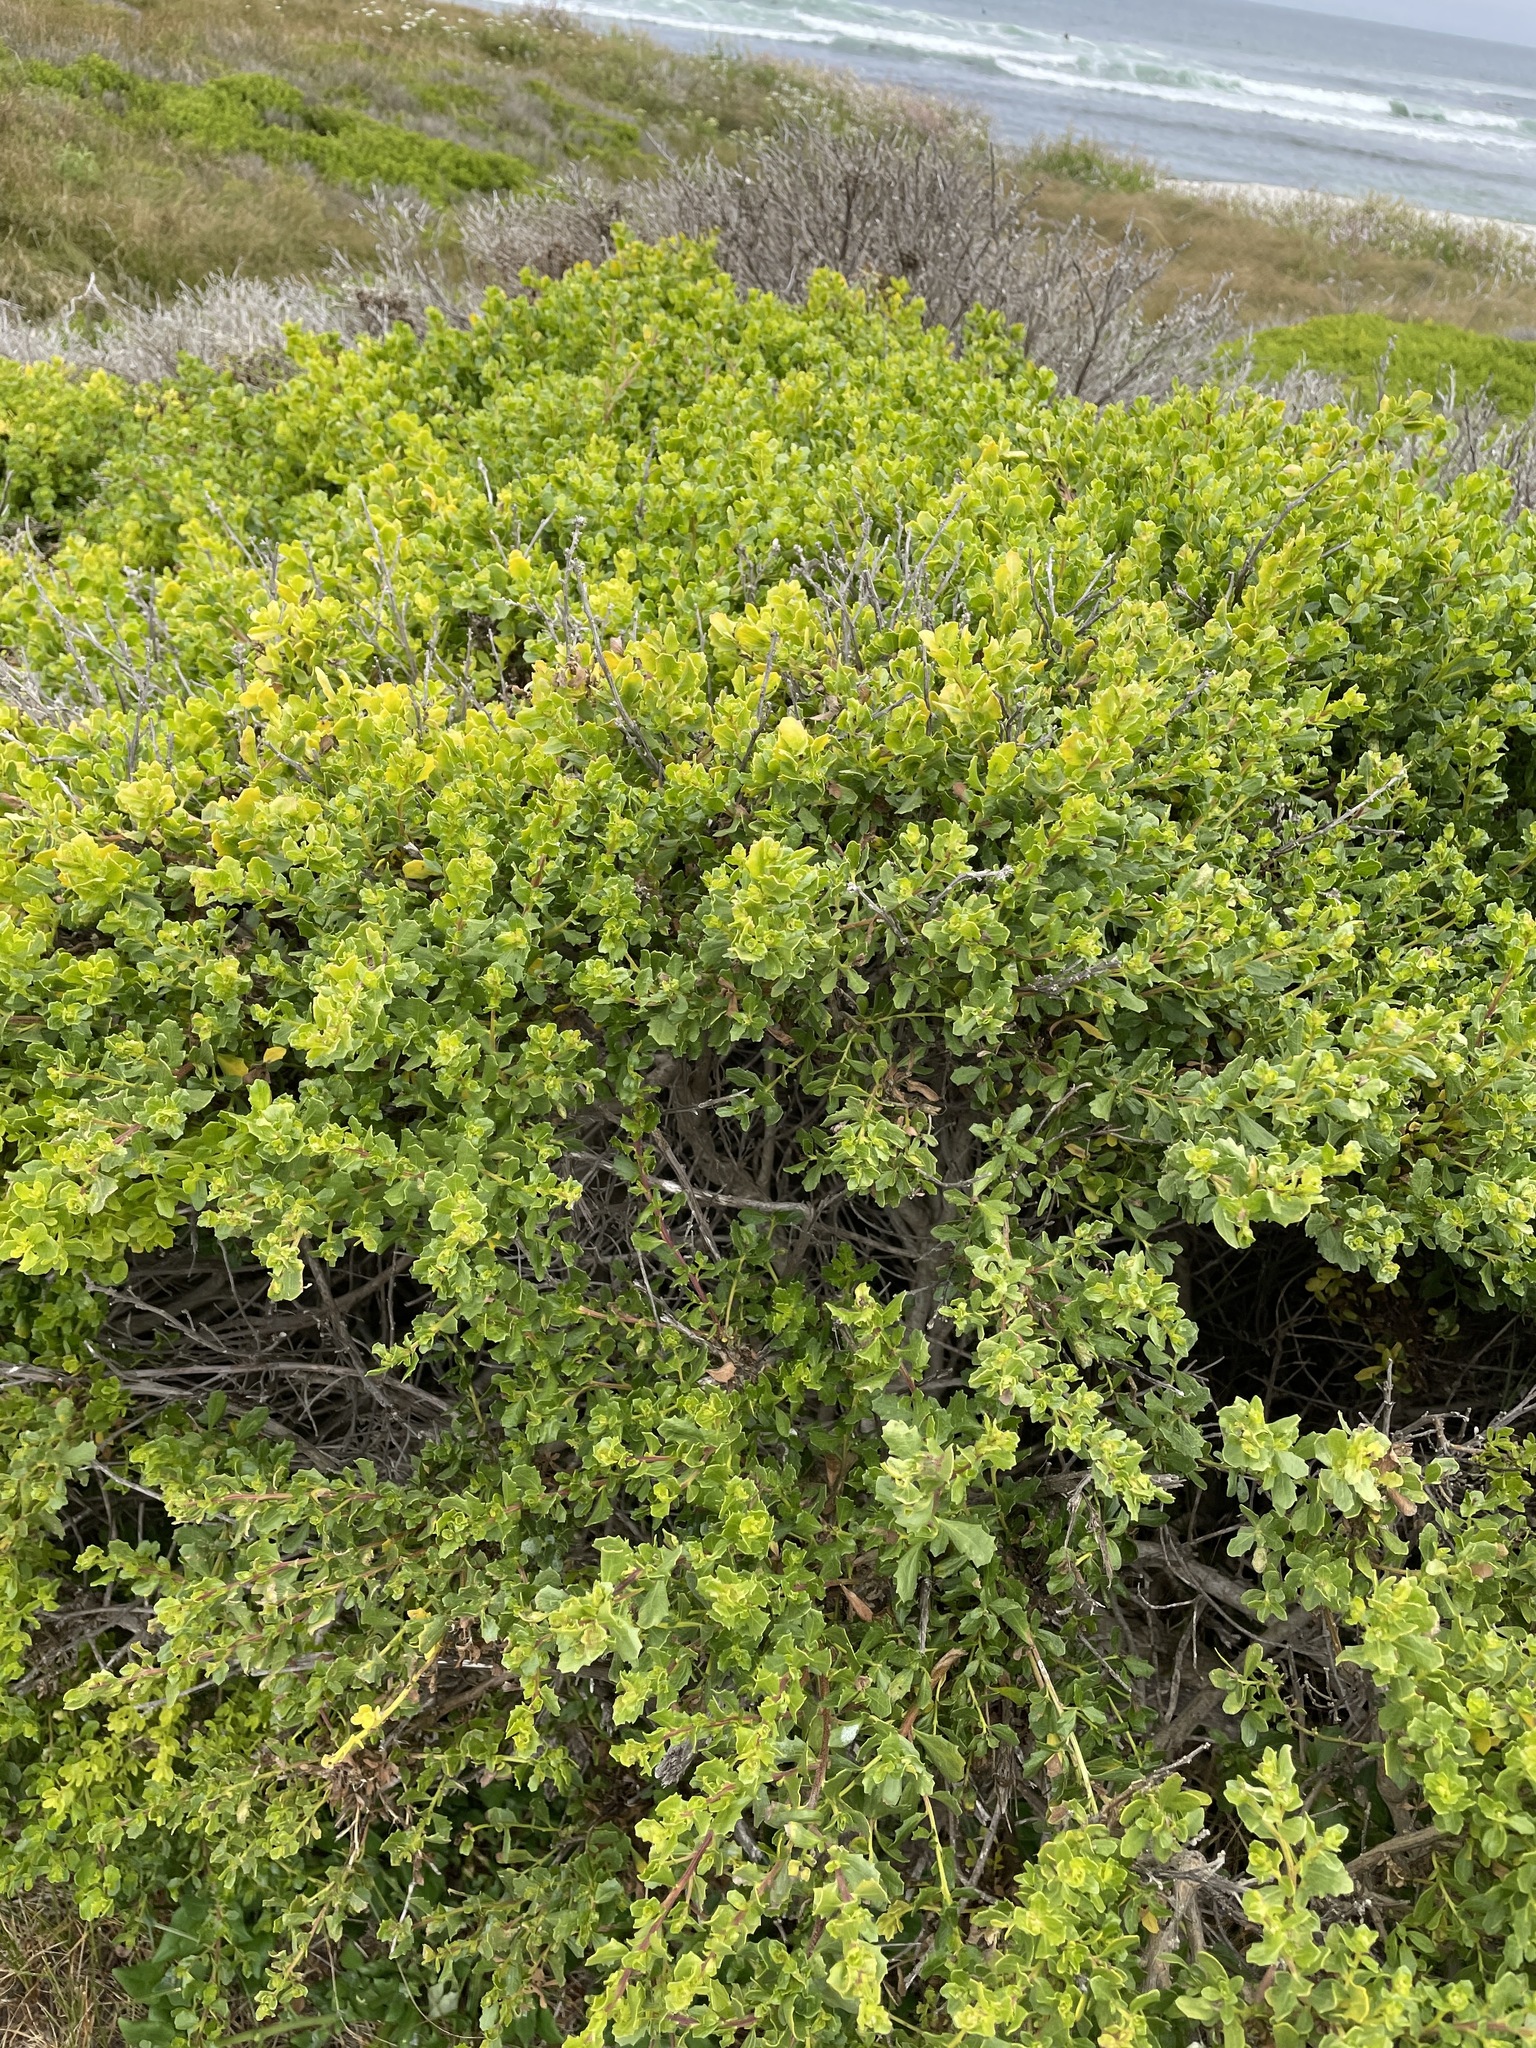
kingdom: Plantae
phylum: Tracheophyta
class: Magnoliopsida
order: Asterales
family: Asteraceae
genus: Baccharis
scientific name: Baccharis pilularis
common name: Coyotebrush
